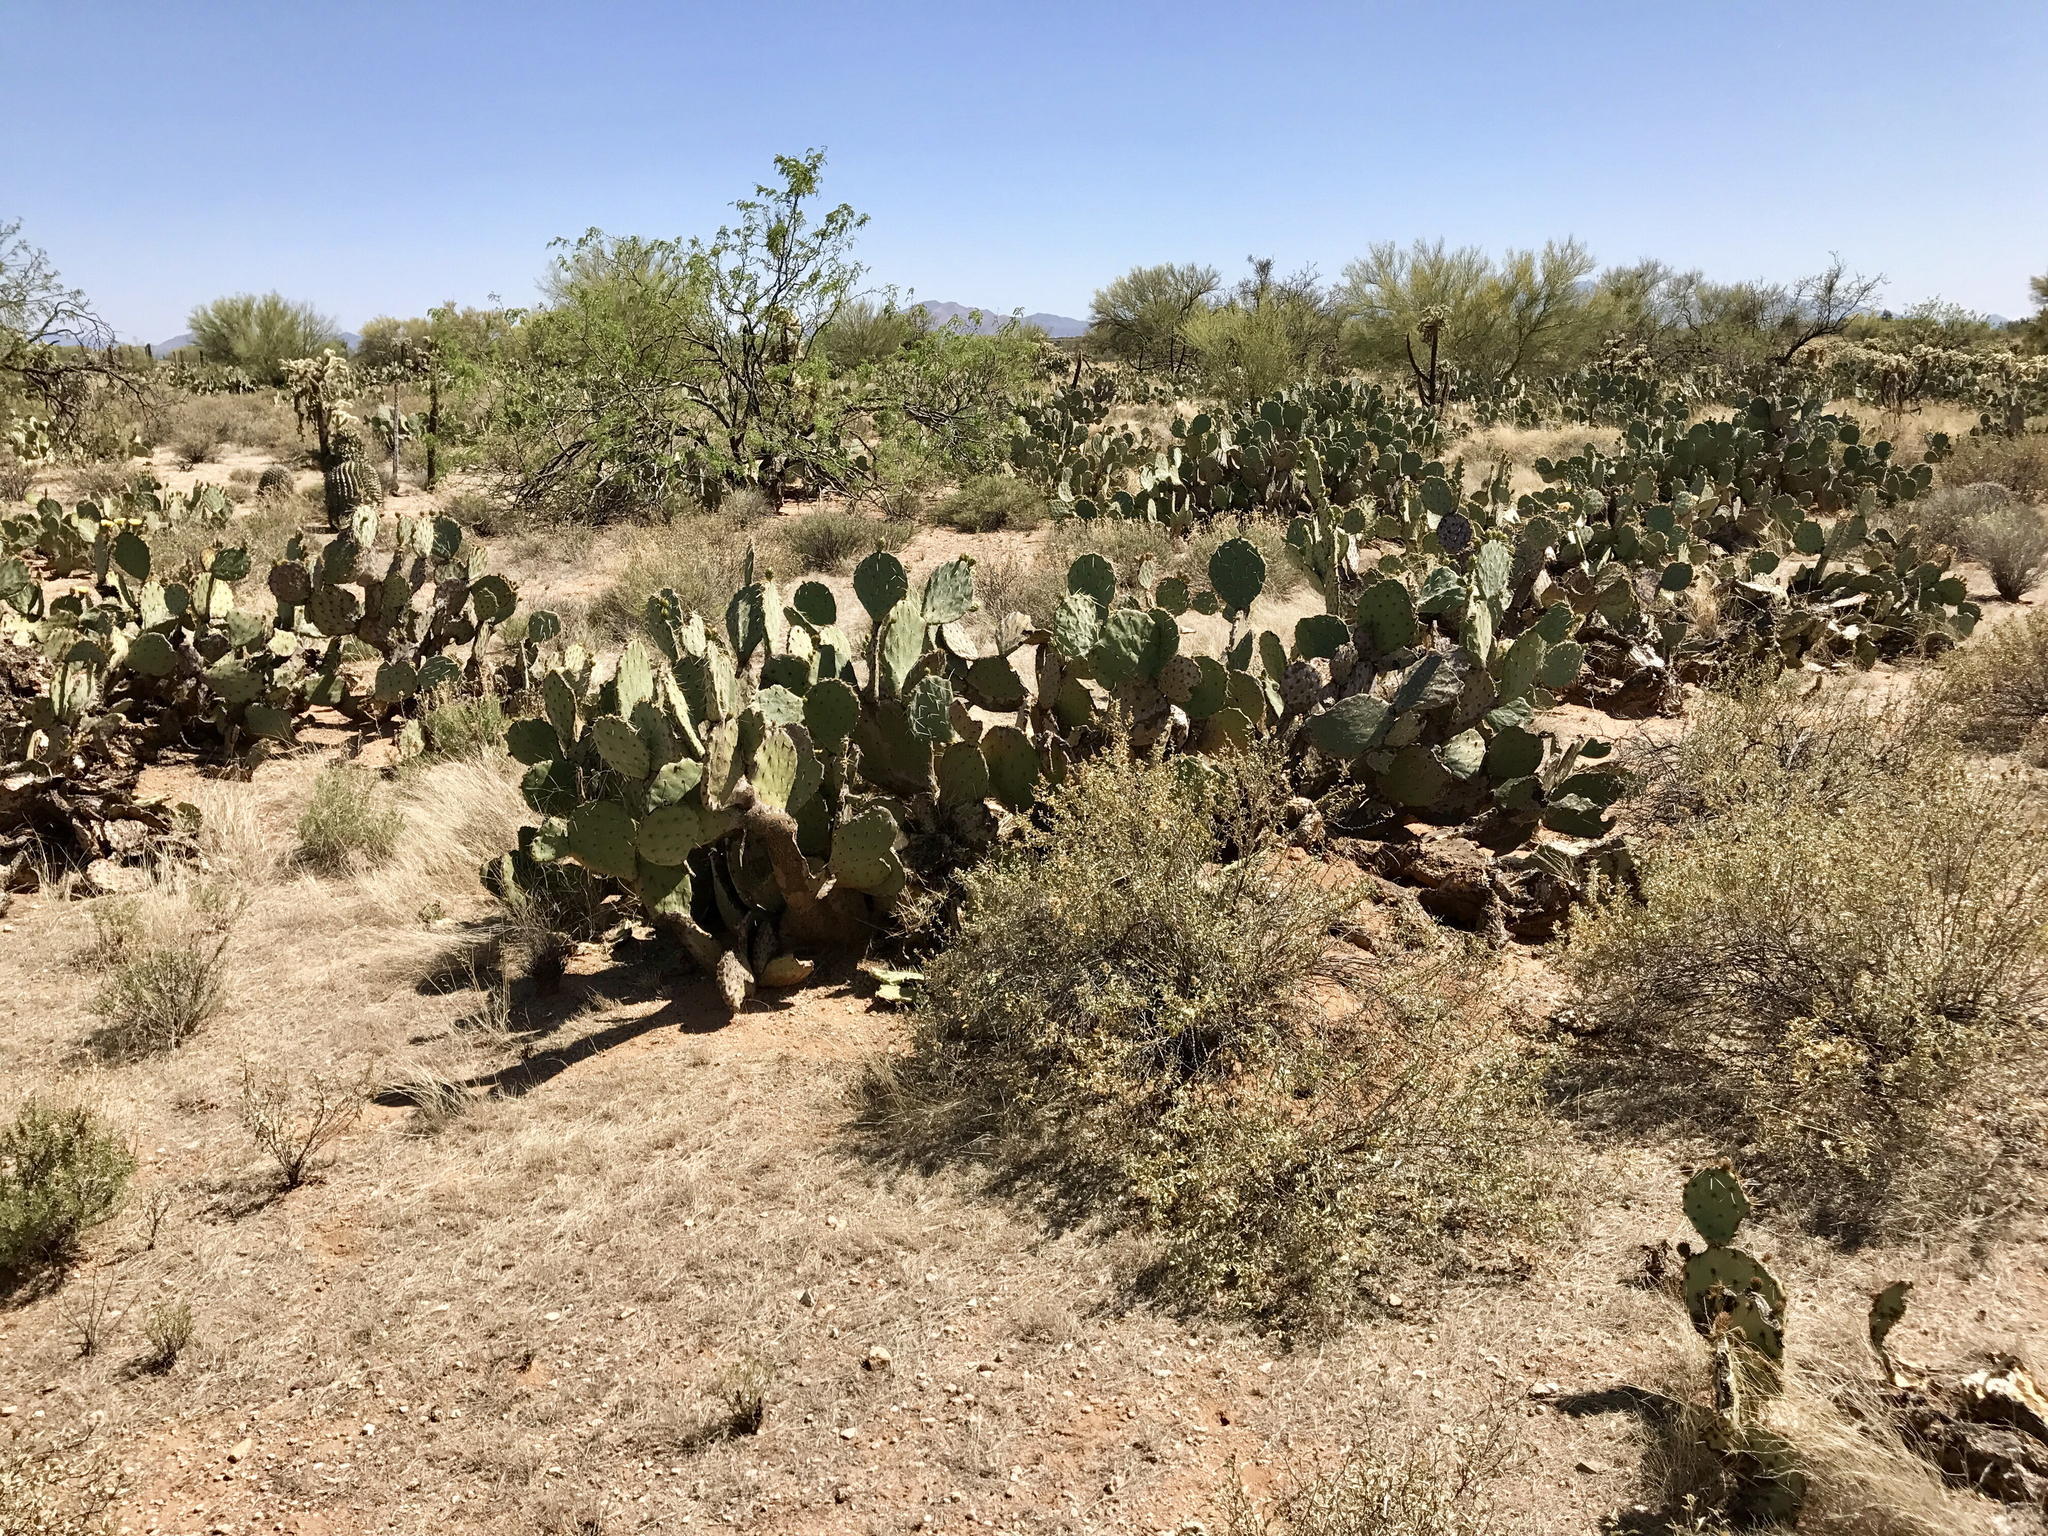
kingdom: Plantae
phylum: Tracheophyta
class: Magnoliopsida
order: Caryophyllales
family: Cactaceae
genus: Opuntia
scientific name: Opuntia engelmannii
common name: Cactus-apple
